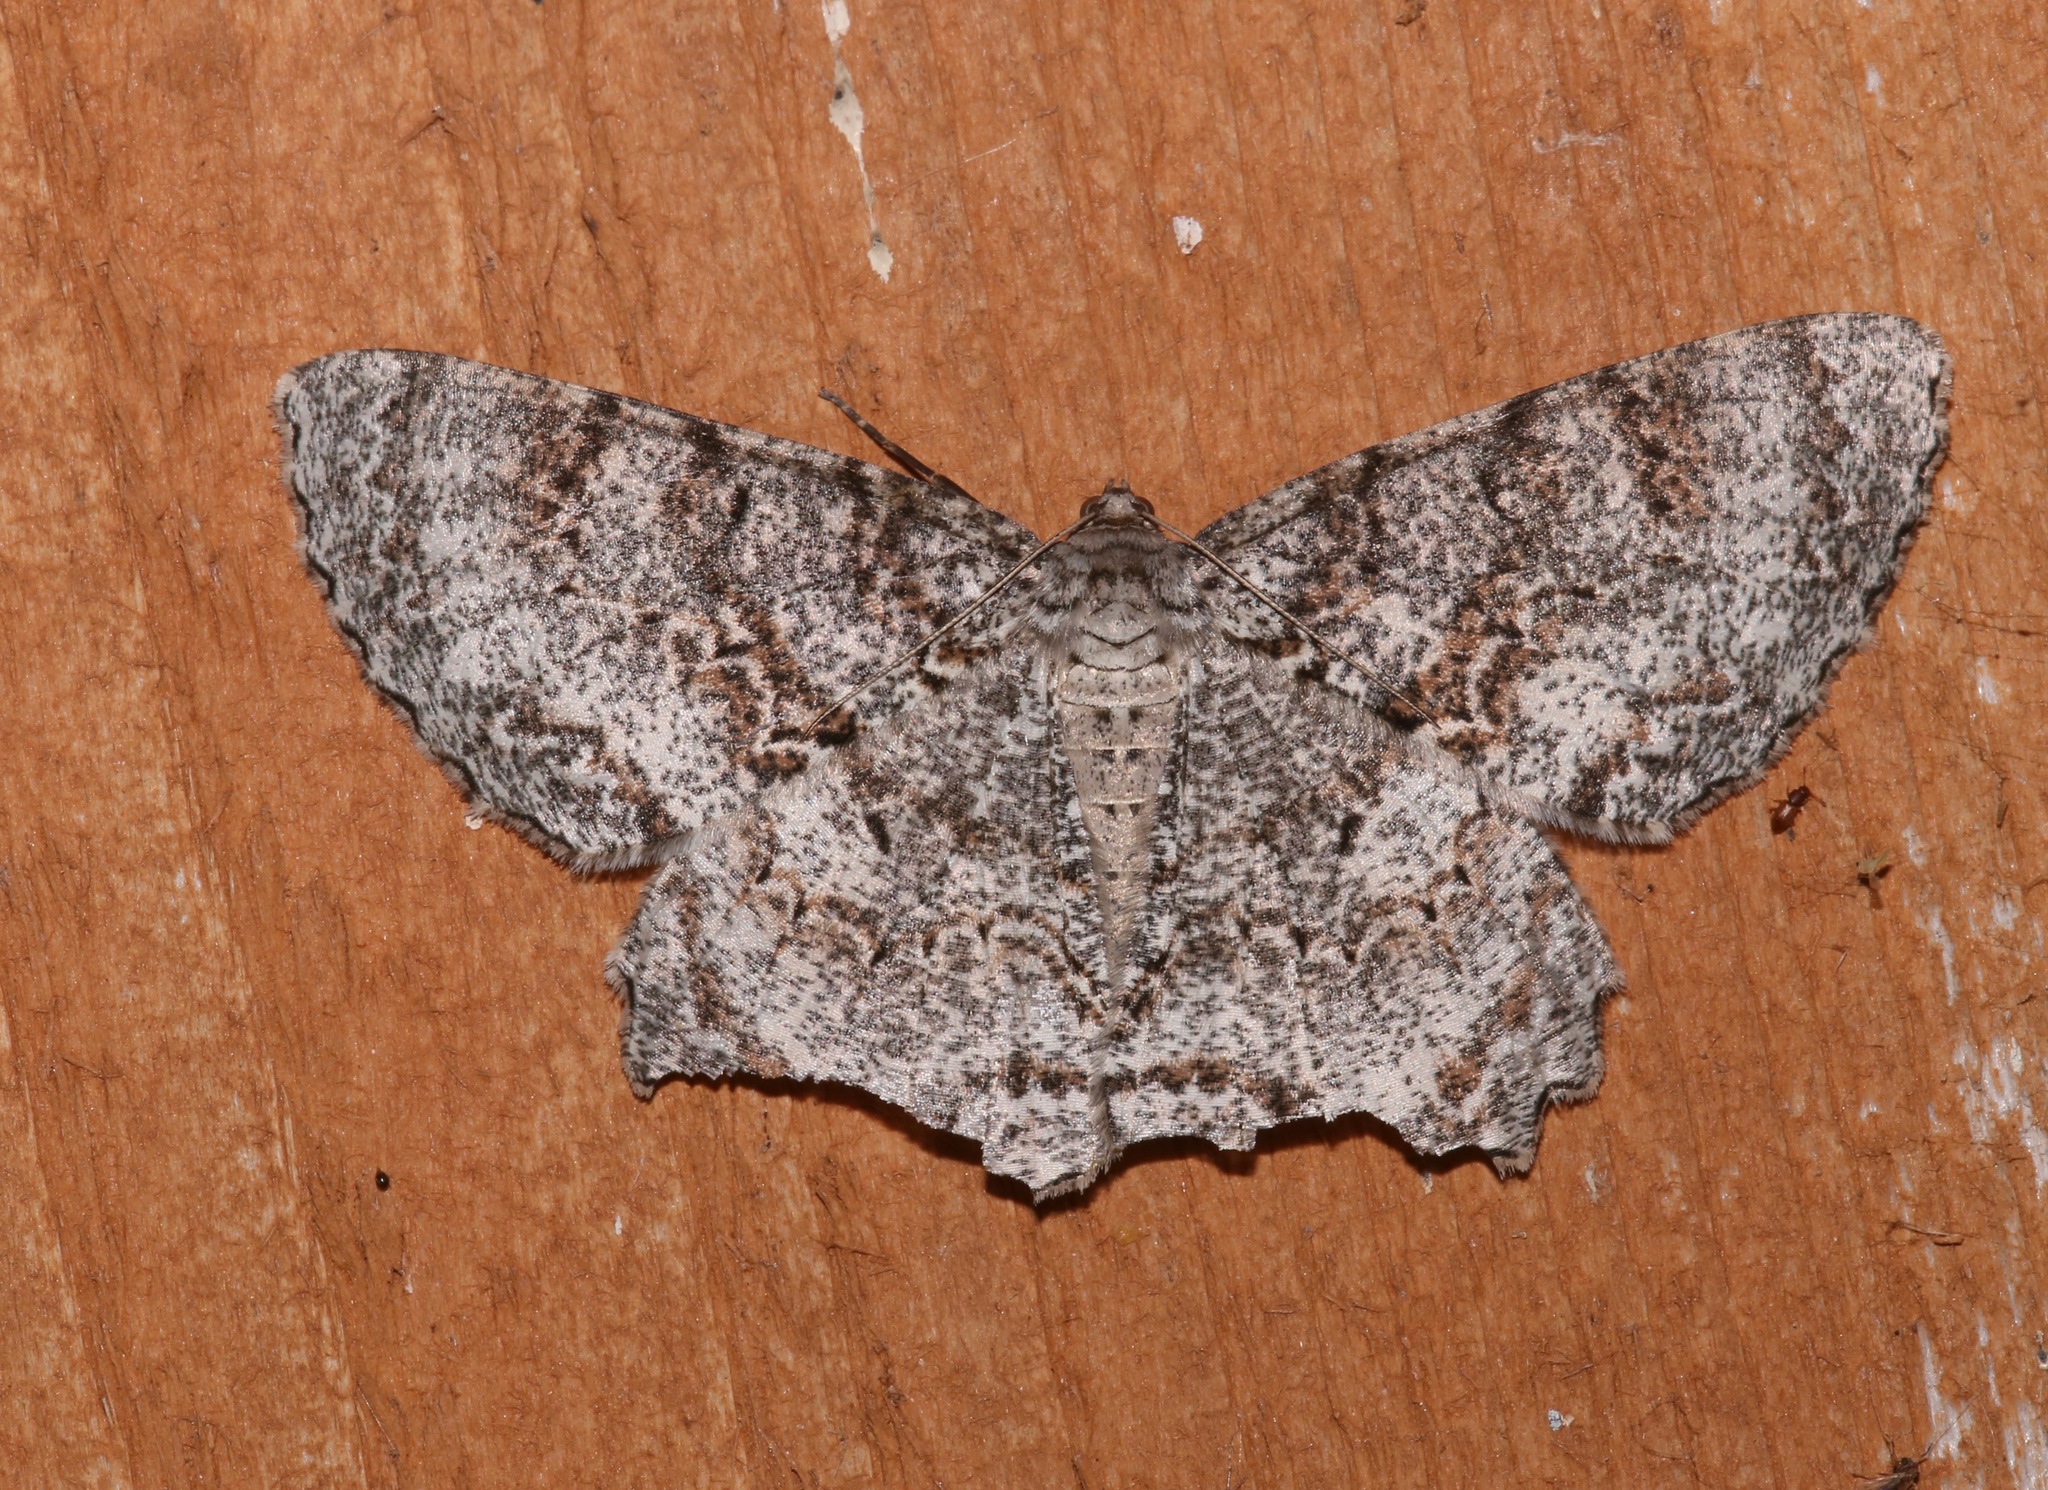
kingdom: Animalia
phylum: Arthropoda
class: Insecta
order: Lepidoptera
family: Geometridae
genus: Epimecis
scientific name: Epimecis hortaria
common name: Tulip-tree beauty
